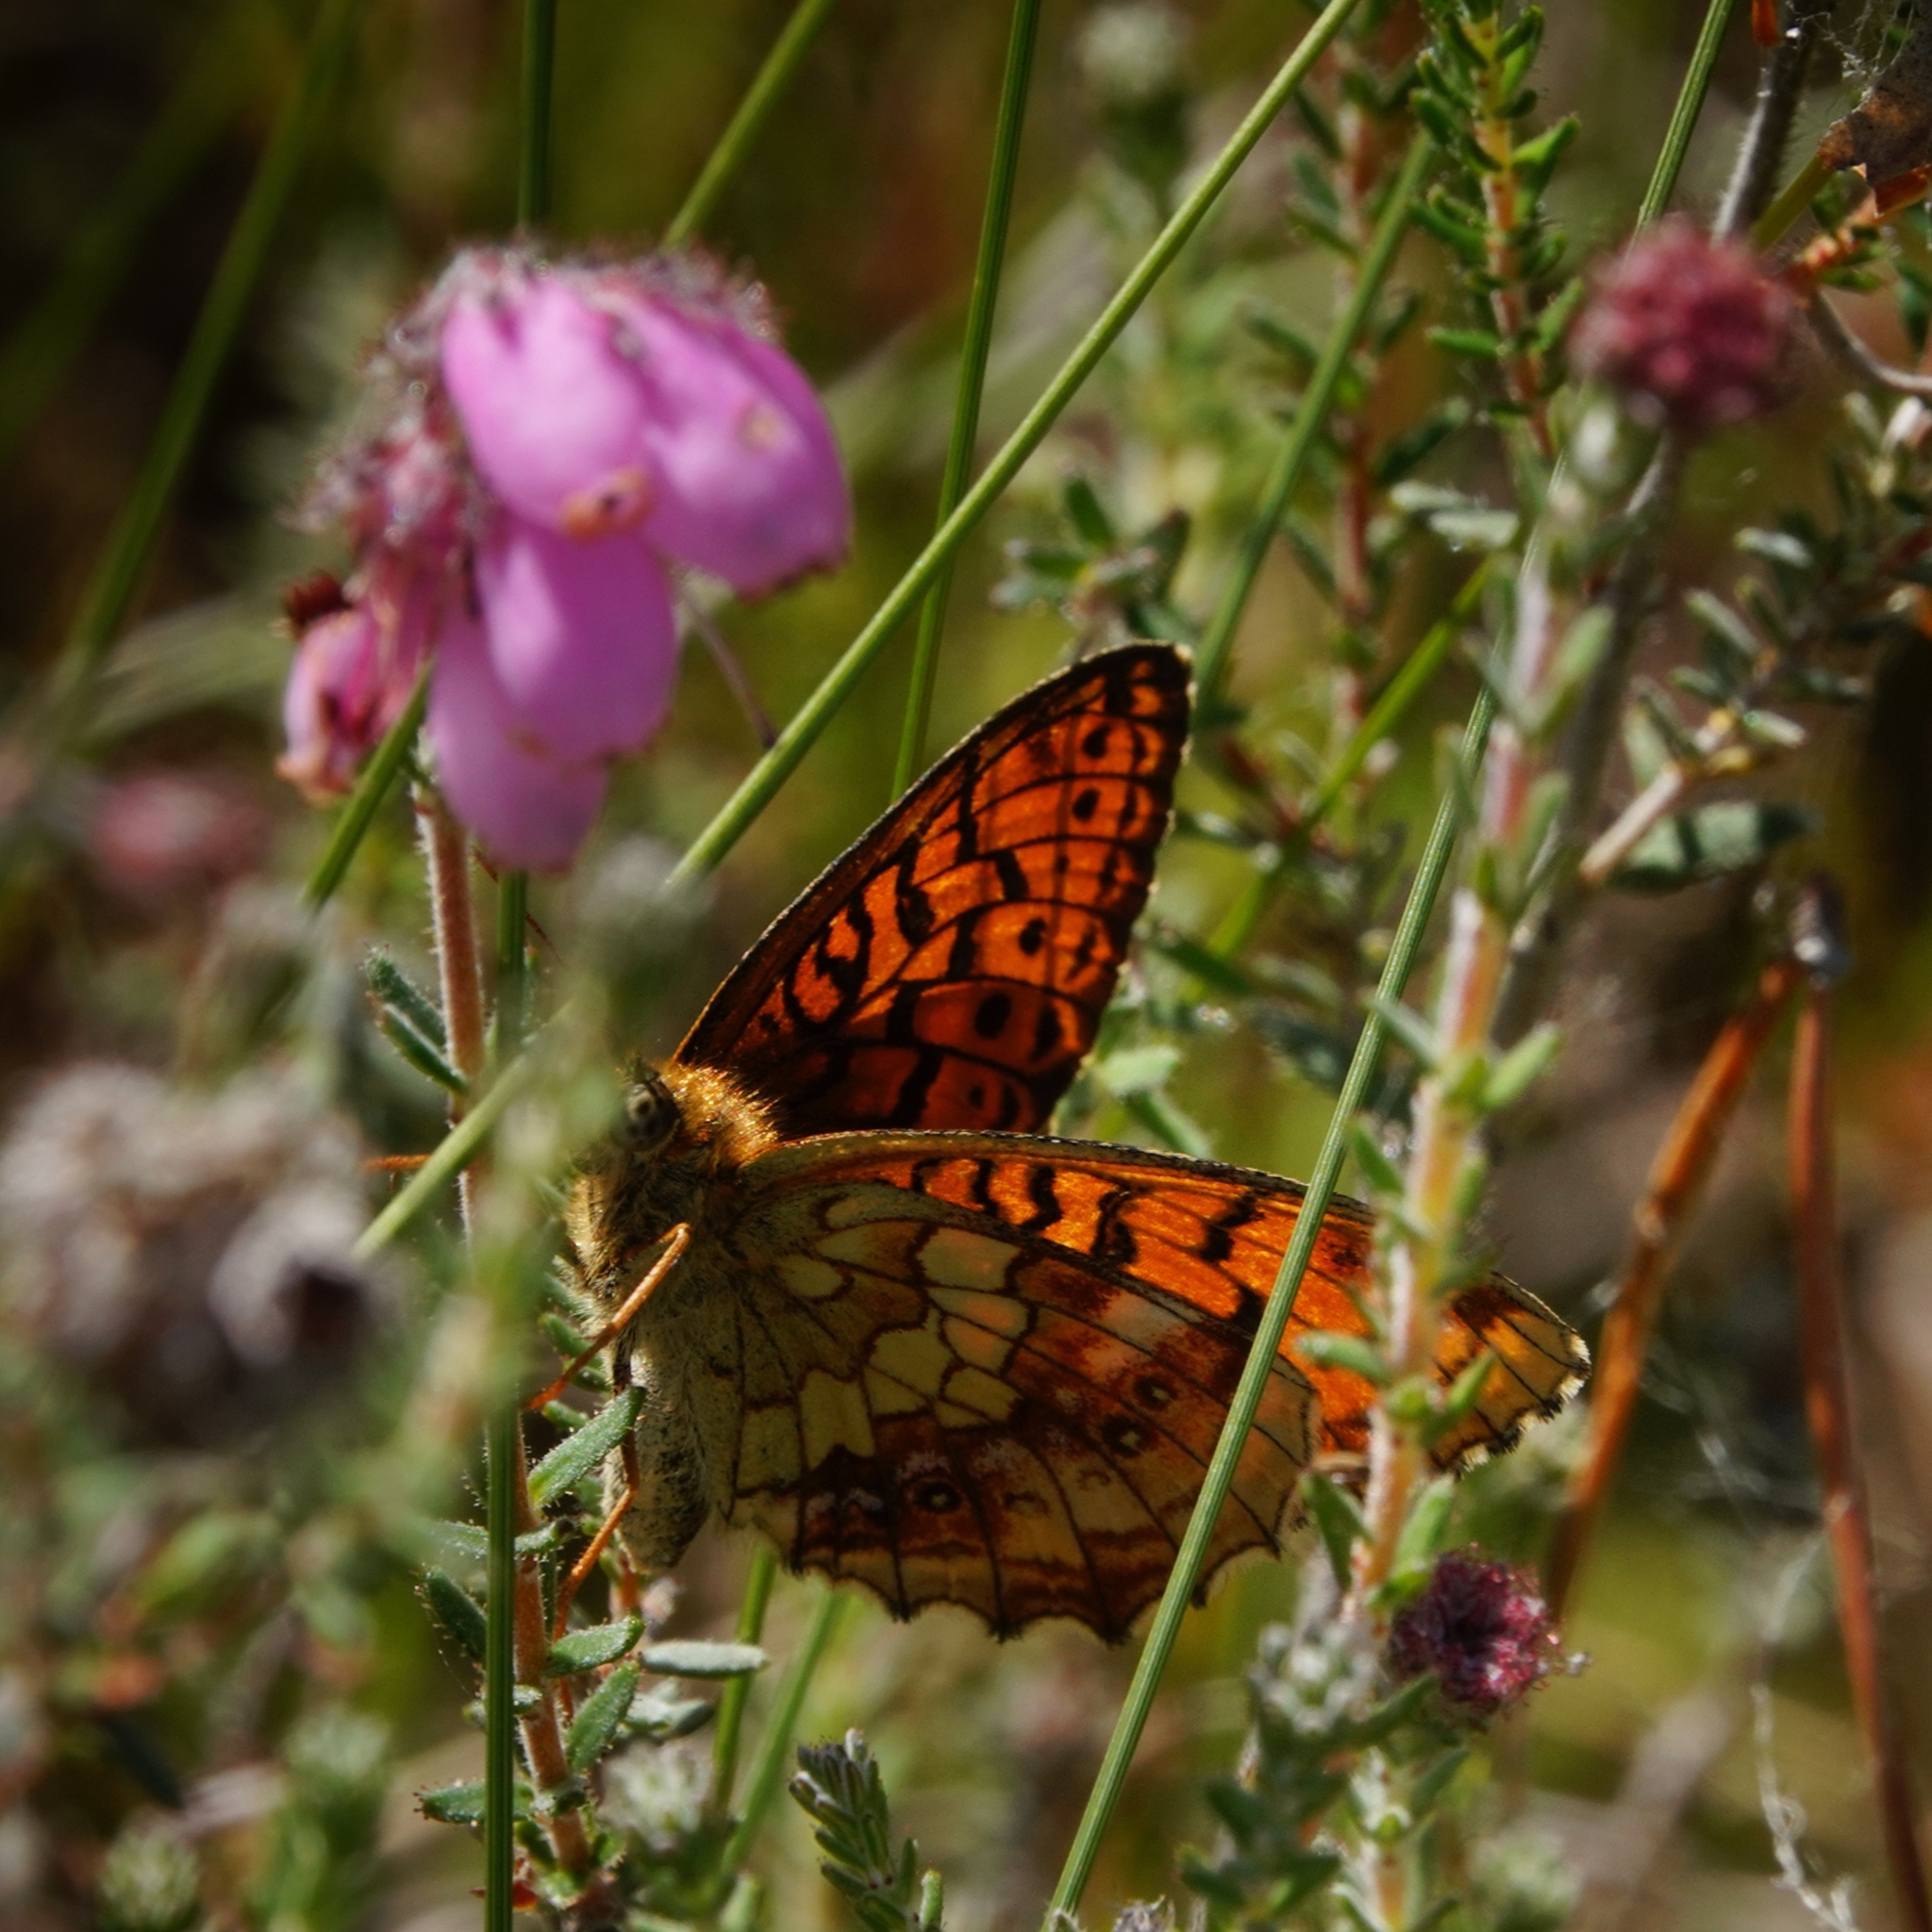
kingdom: Animalia
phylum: Arthropoda
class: Insecta
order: Lepidoptera
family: Nymphalidae
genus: Brenthis
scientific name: Brenthis ino
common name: Lesser marbled fritillary
